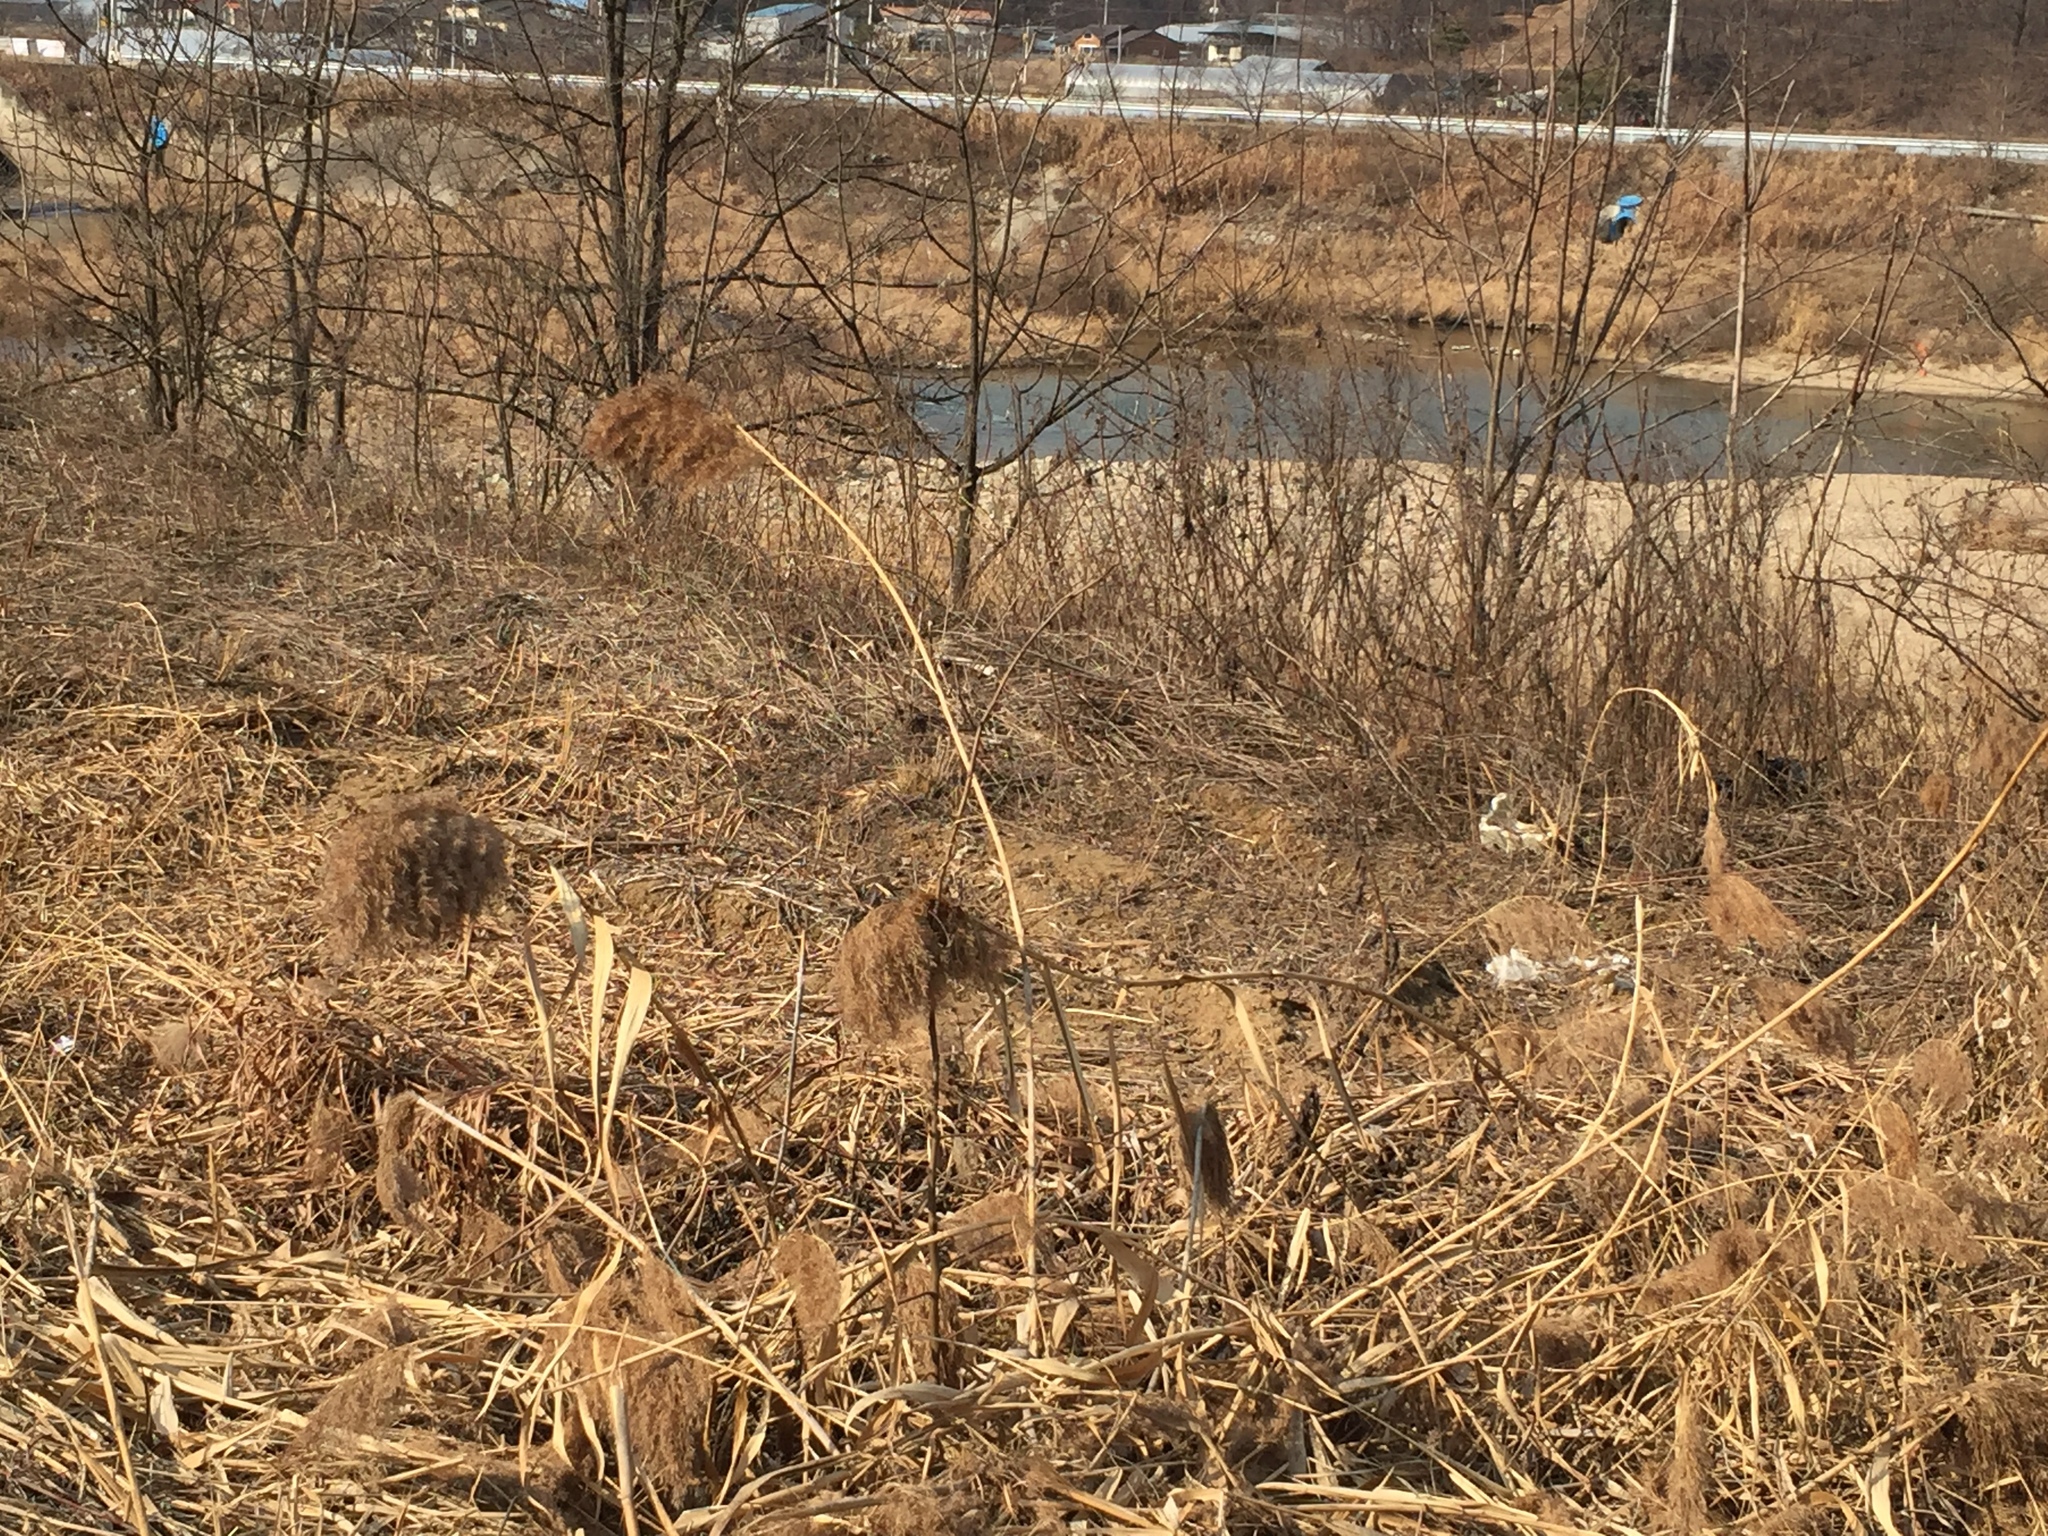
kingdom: Plantae
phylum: Tracheophyta
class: Liliopsida
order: Poales
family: Poaceae
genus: Phragmites
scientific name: Phragmites australis
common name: Common reed
